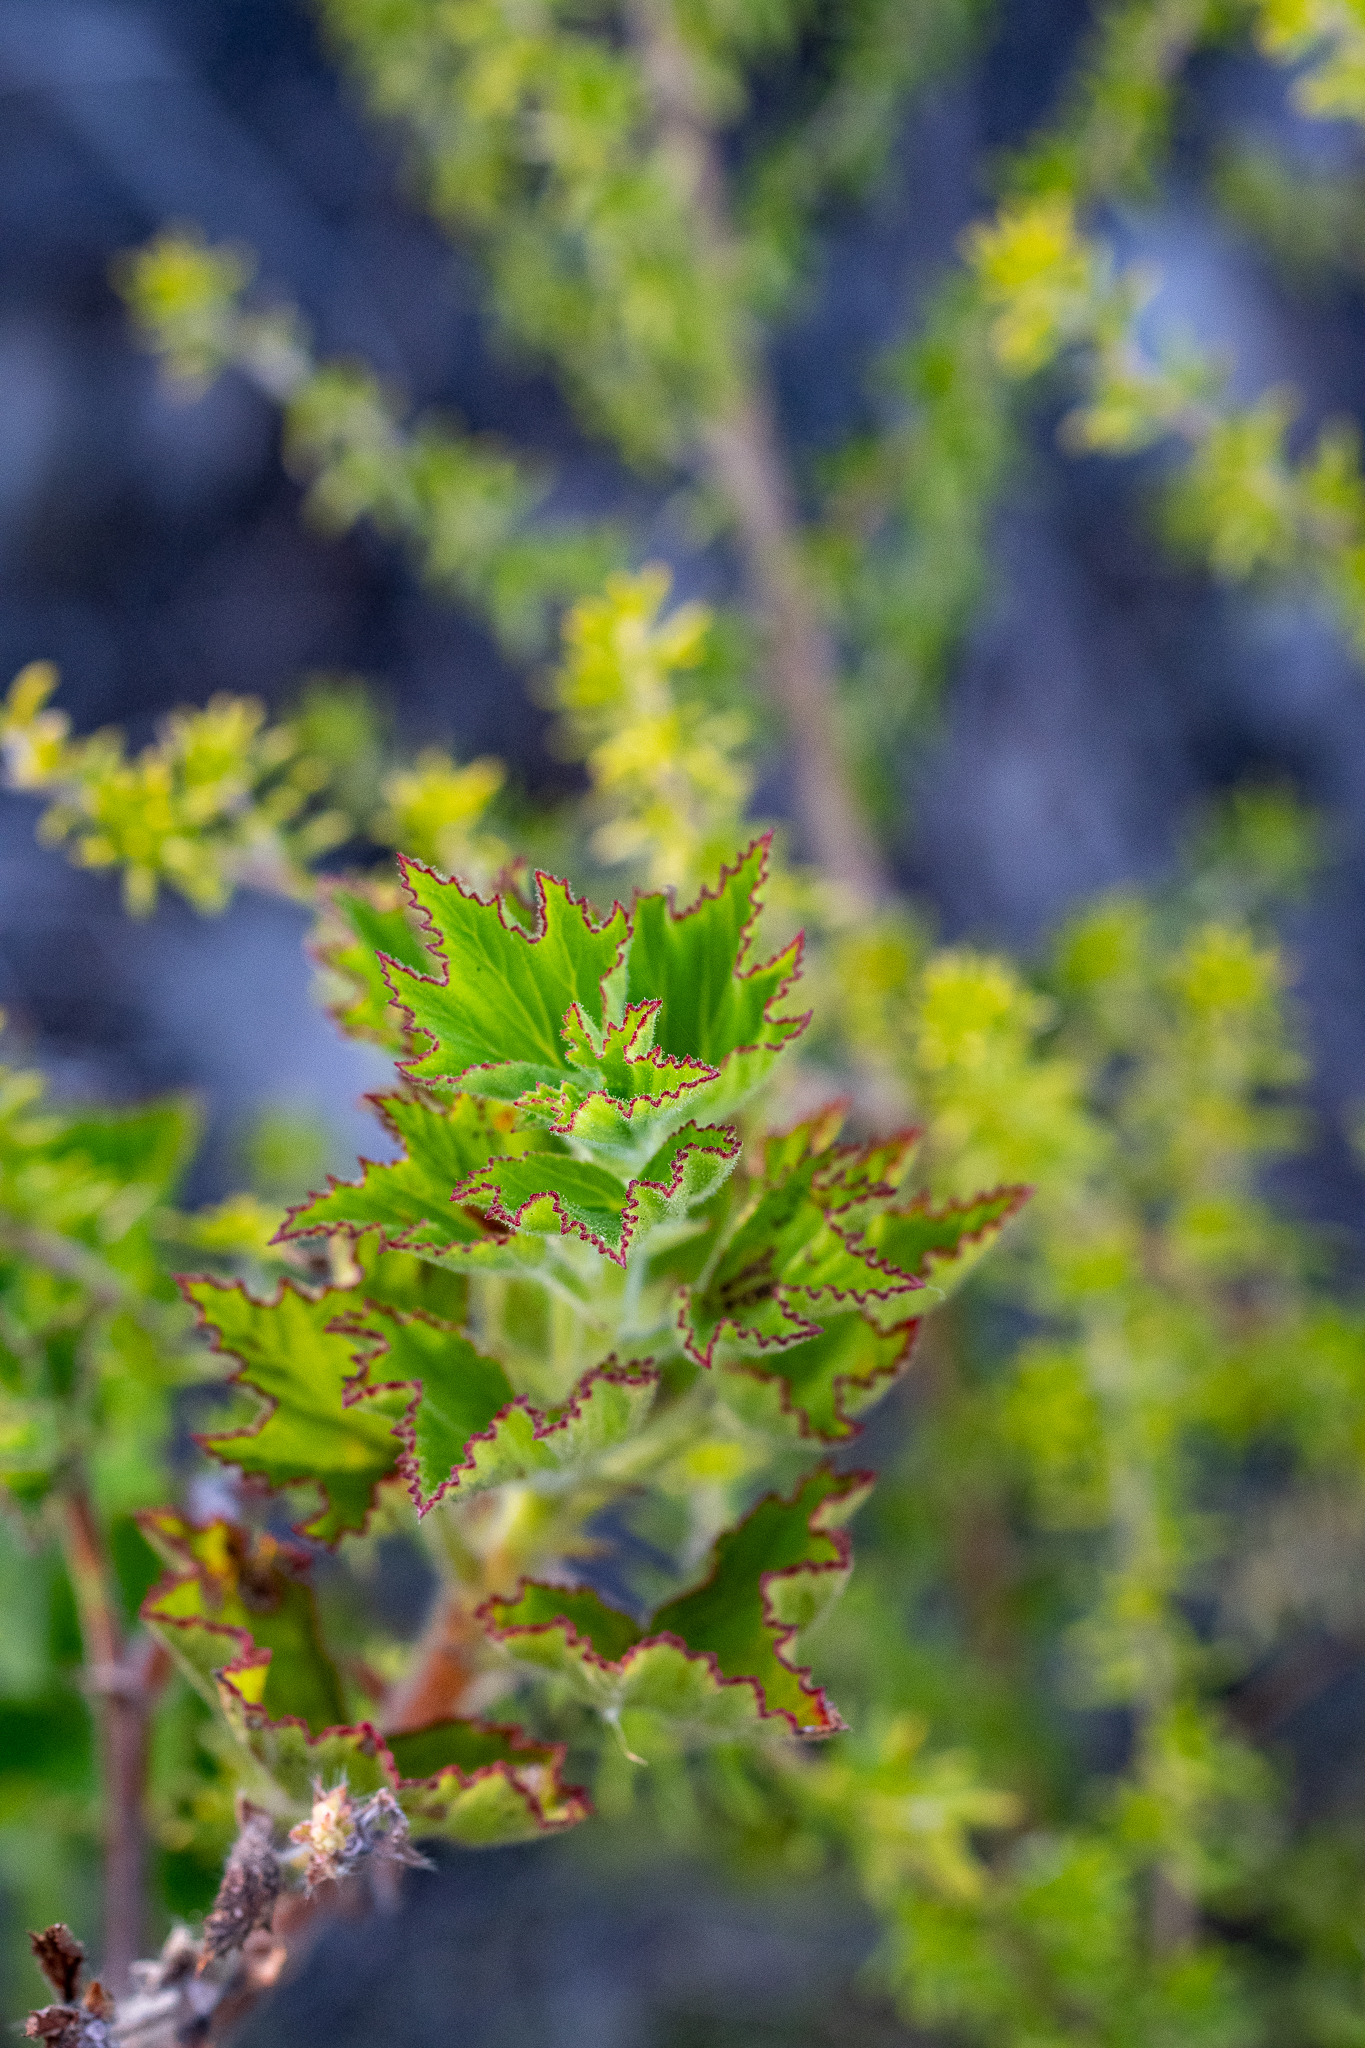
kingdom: Plantae
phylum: Tracheophyta
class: Magnoliopsida
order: Geraniales
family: Geraniaceae
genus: Pelargonium
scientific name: Pelargonium cucullatum
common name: Tree pelargonium
